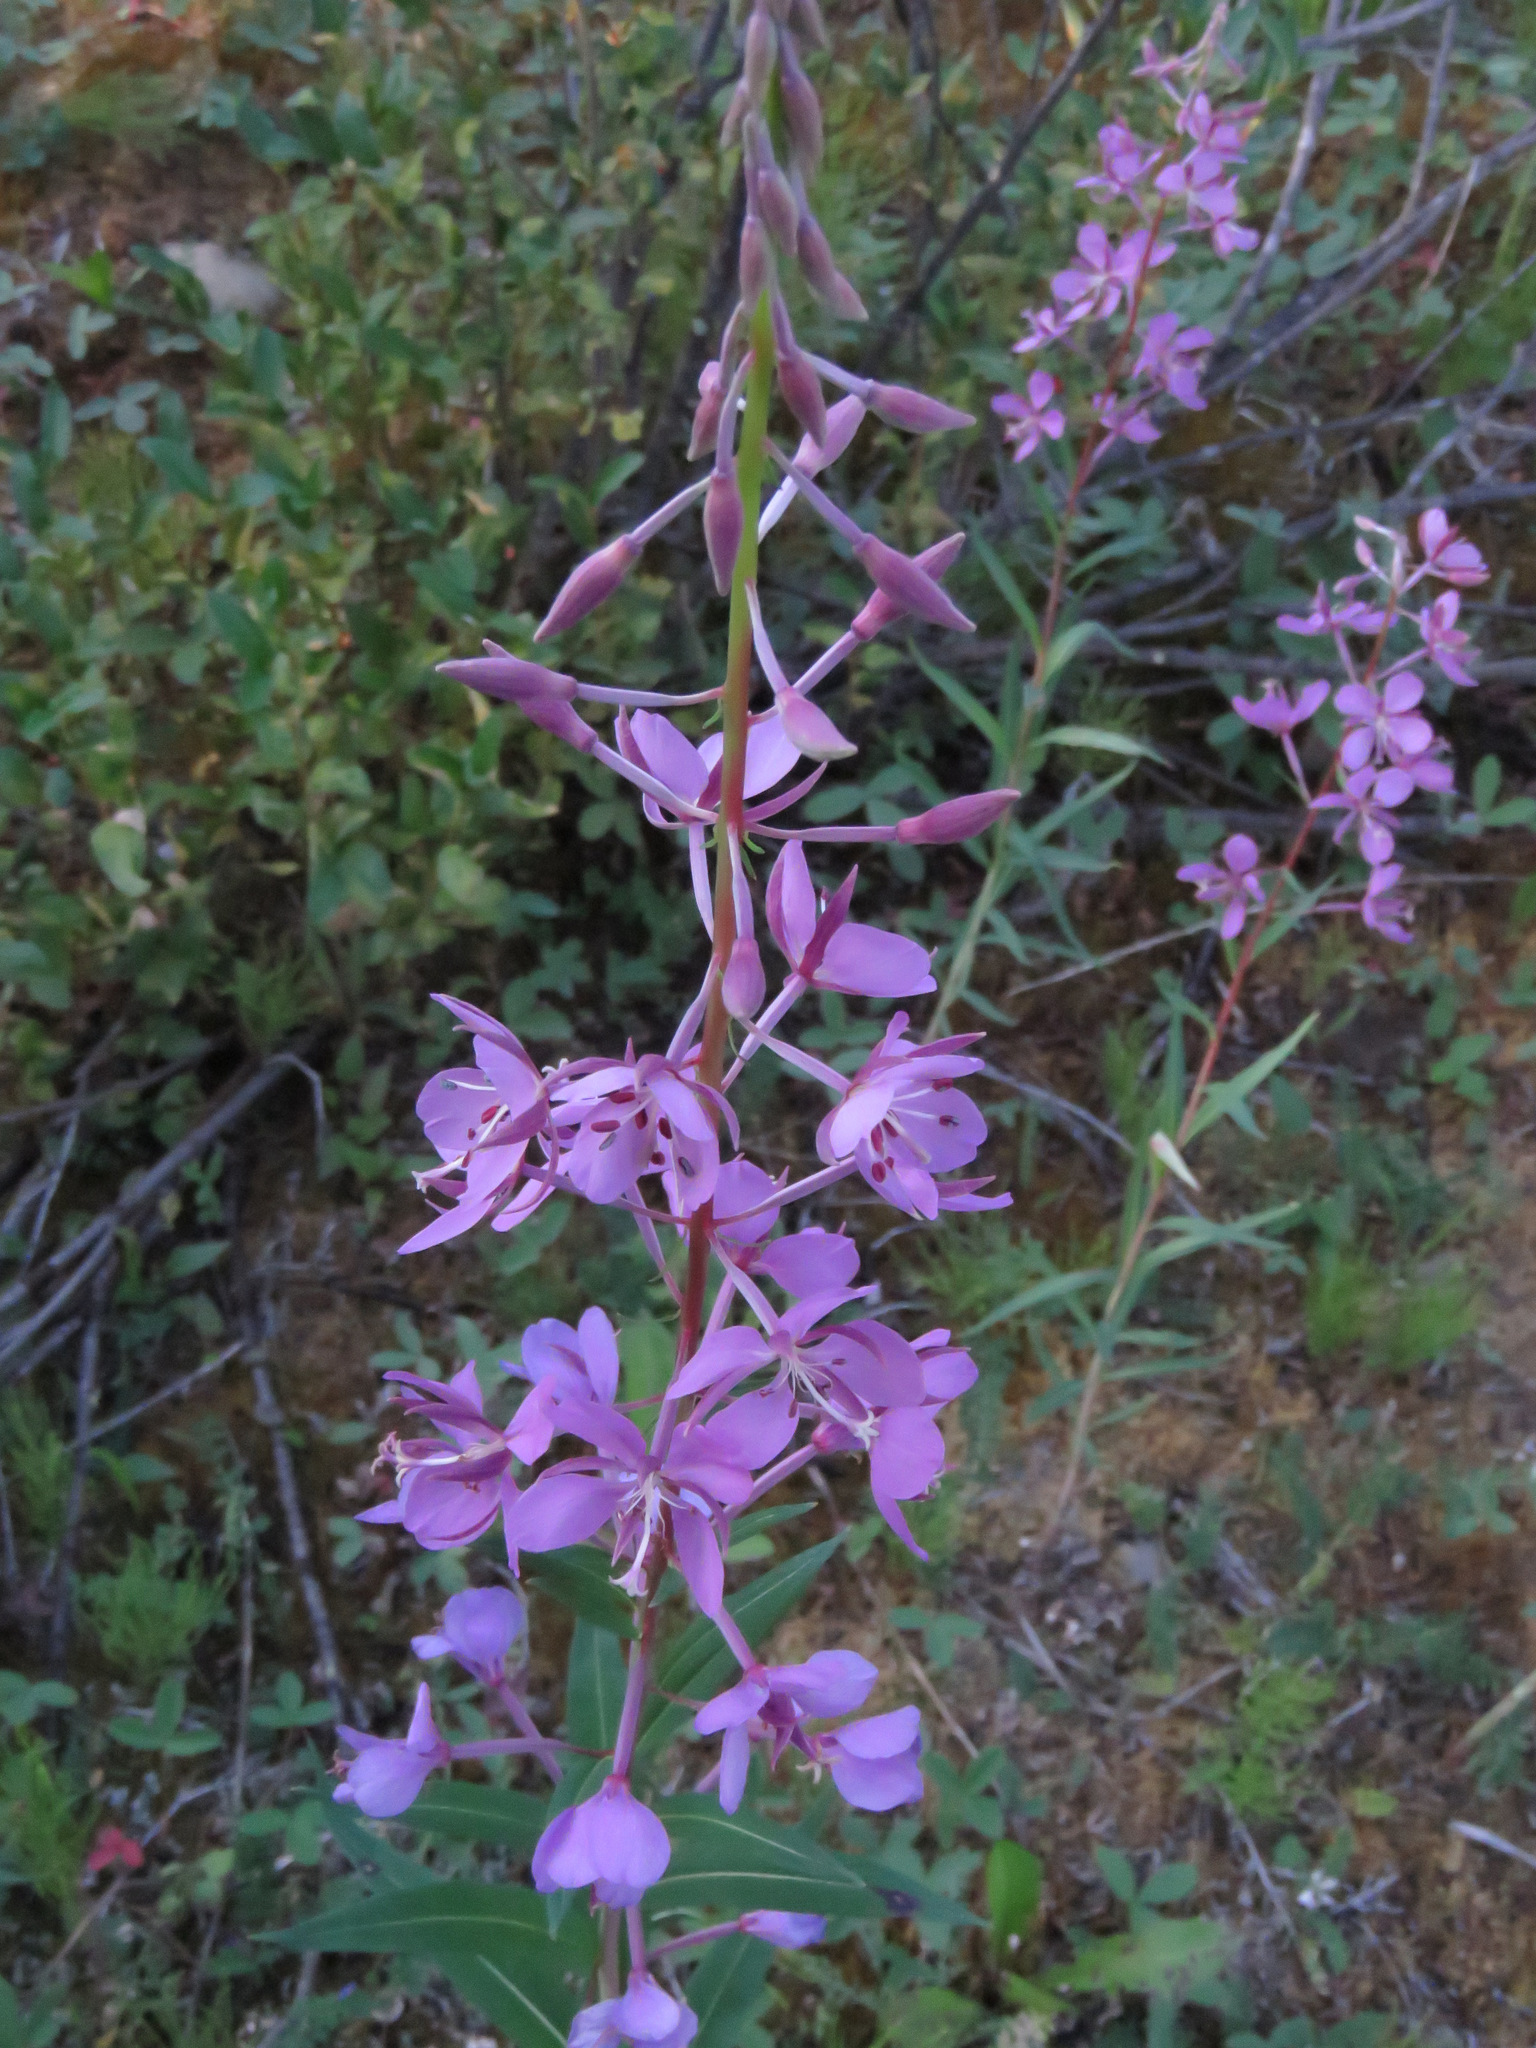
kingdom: Plantae
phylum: Tracheophyta
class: Magnoliopsida
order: Myrtales
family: Onagraceae
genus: Chamaenerion
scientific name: Chamaenerion angustifolium
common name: Fireweed
